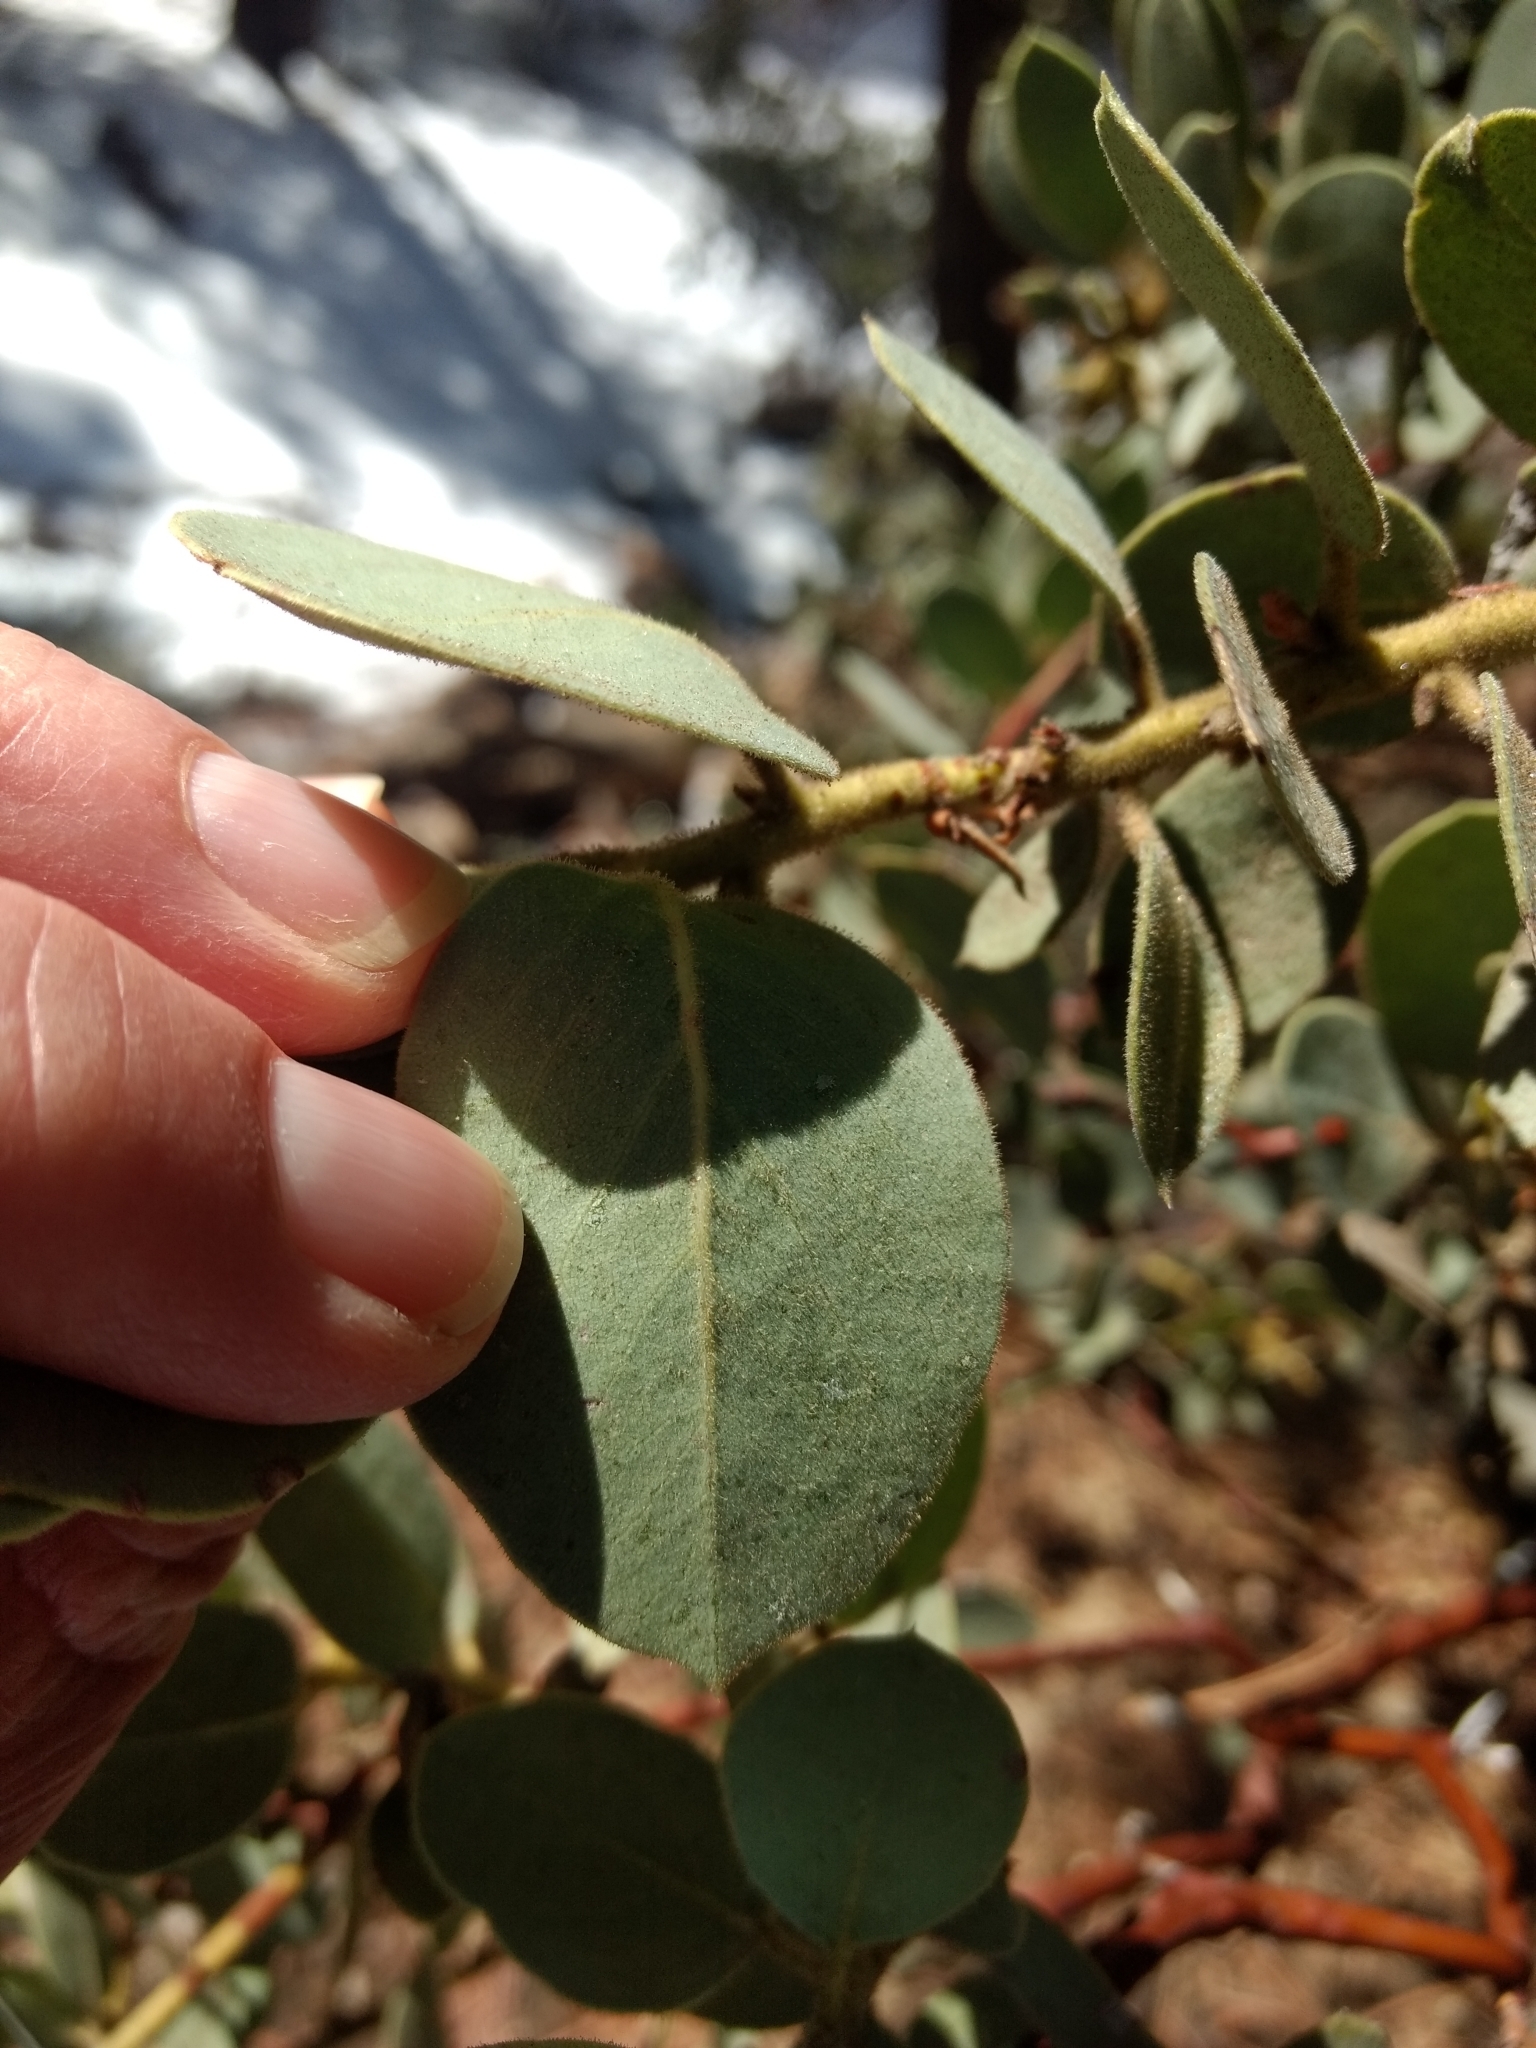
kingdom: Animalia
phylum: Arthropoda
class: Insecta
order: Lepidoptera
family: Gracillariidae
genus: Marmara
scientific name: Marmara arbutiella
